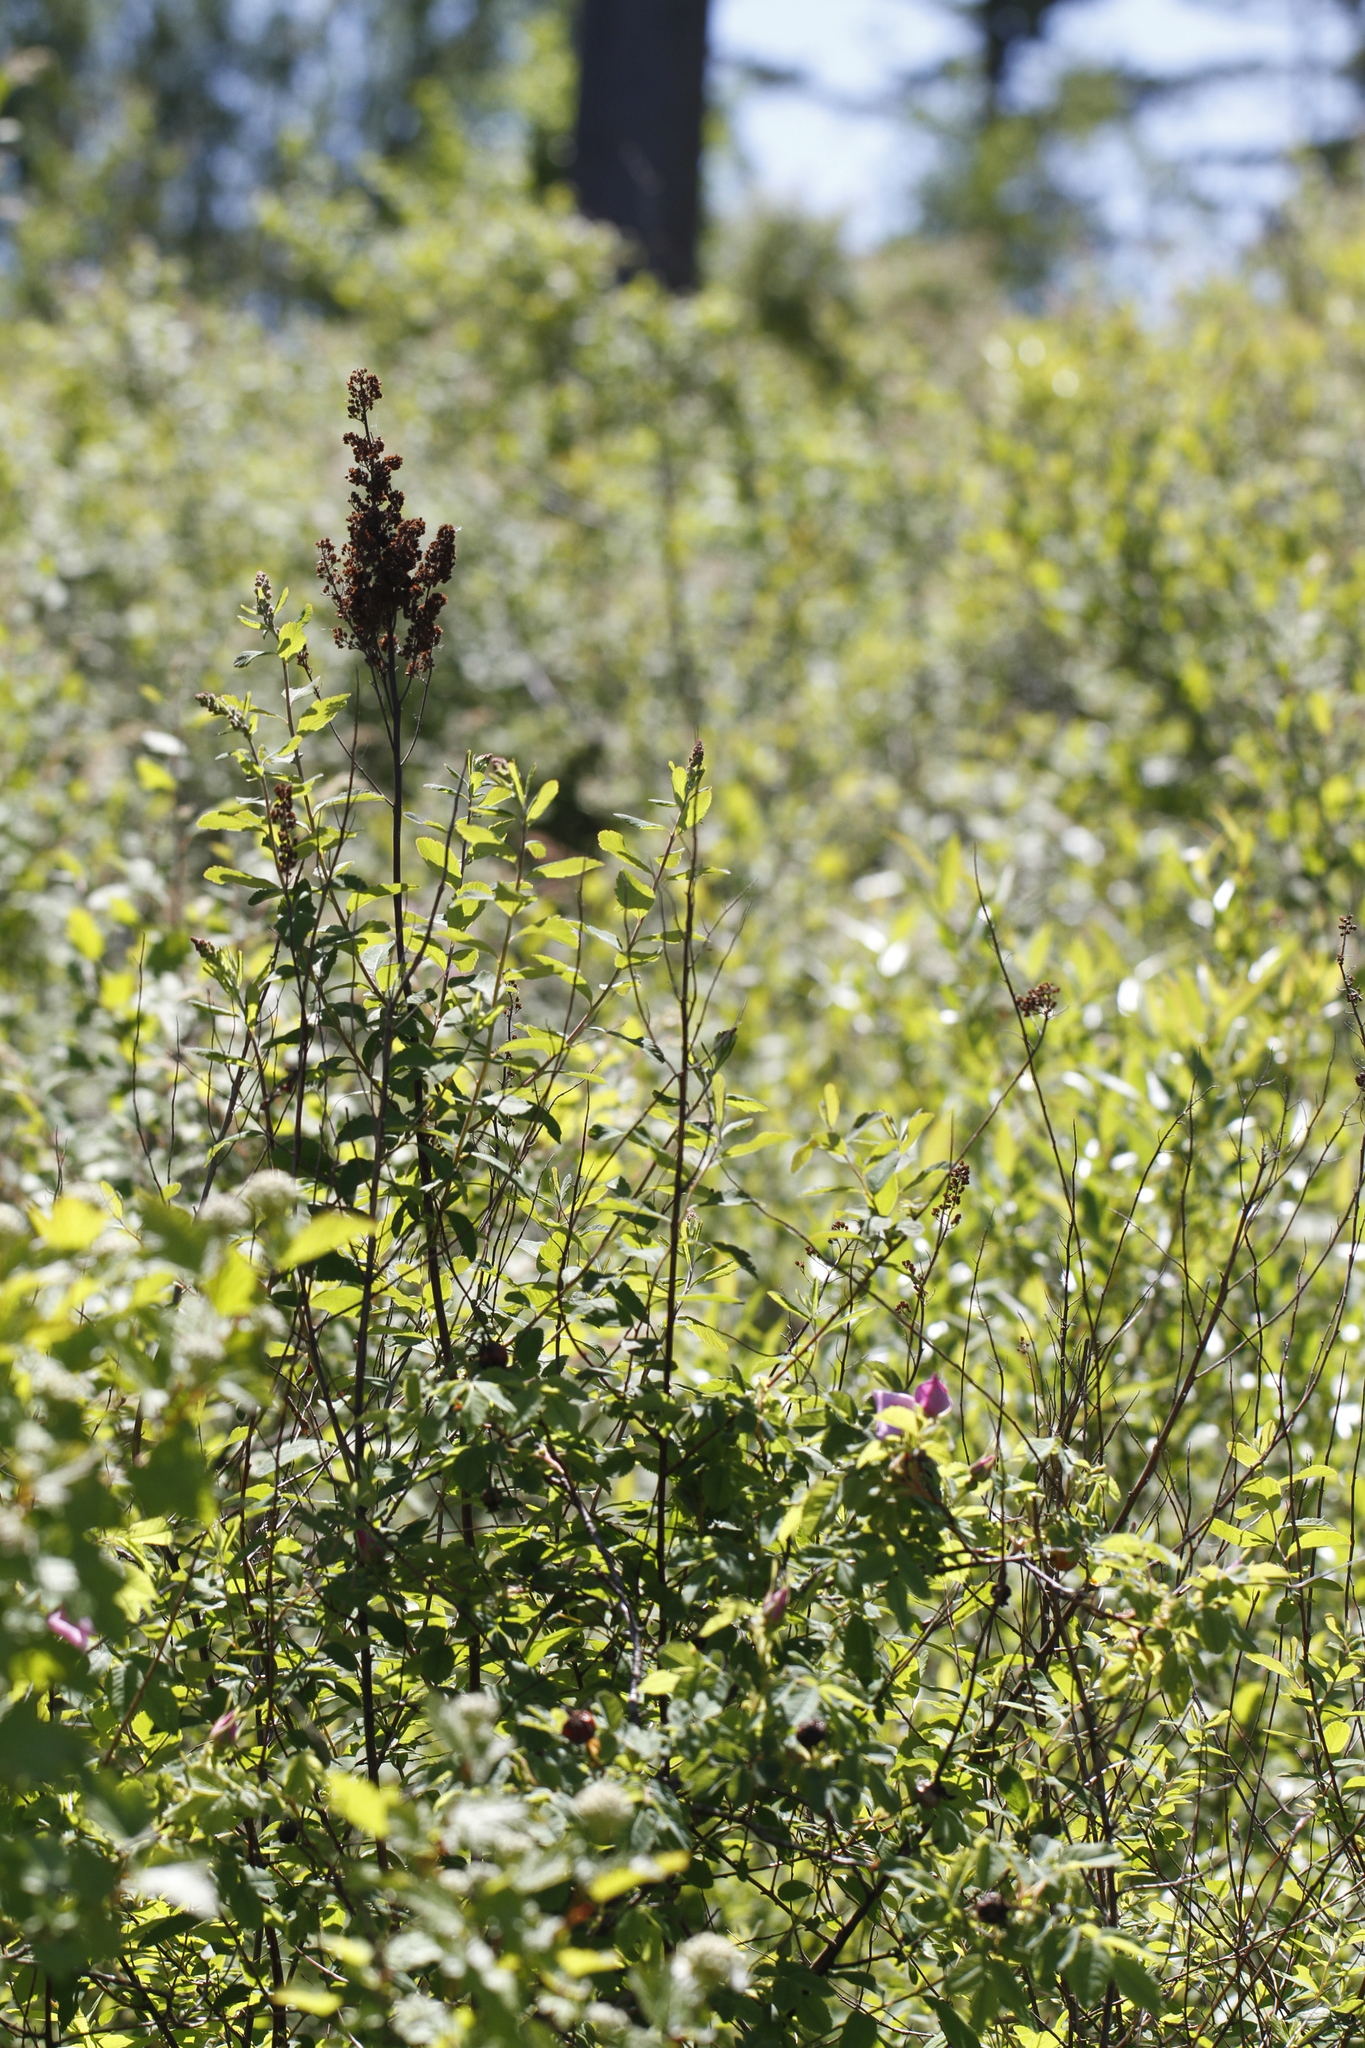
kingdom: Plantae
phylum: Tracheophyta
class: Magnoliopsida
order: Rosales
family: Rosaceae
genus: Spiraea
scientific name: Spiraea douglasii
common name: Steeplebush
